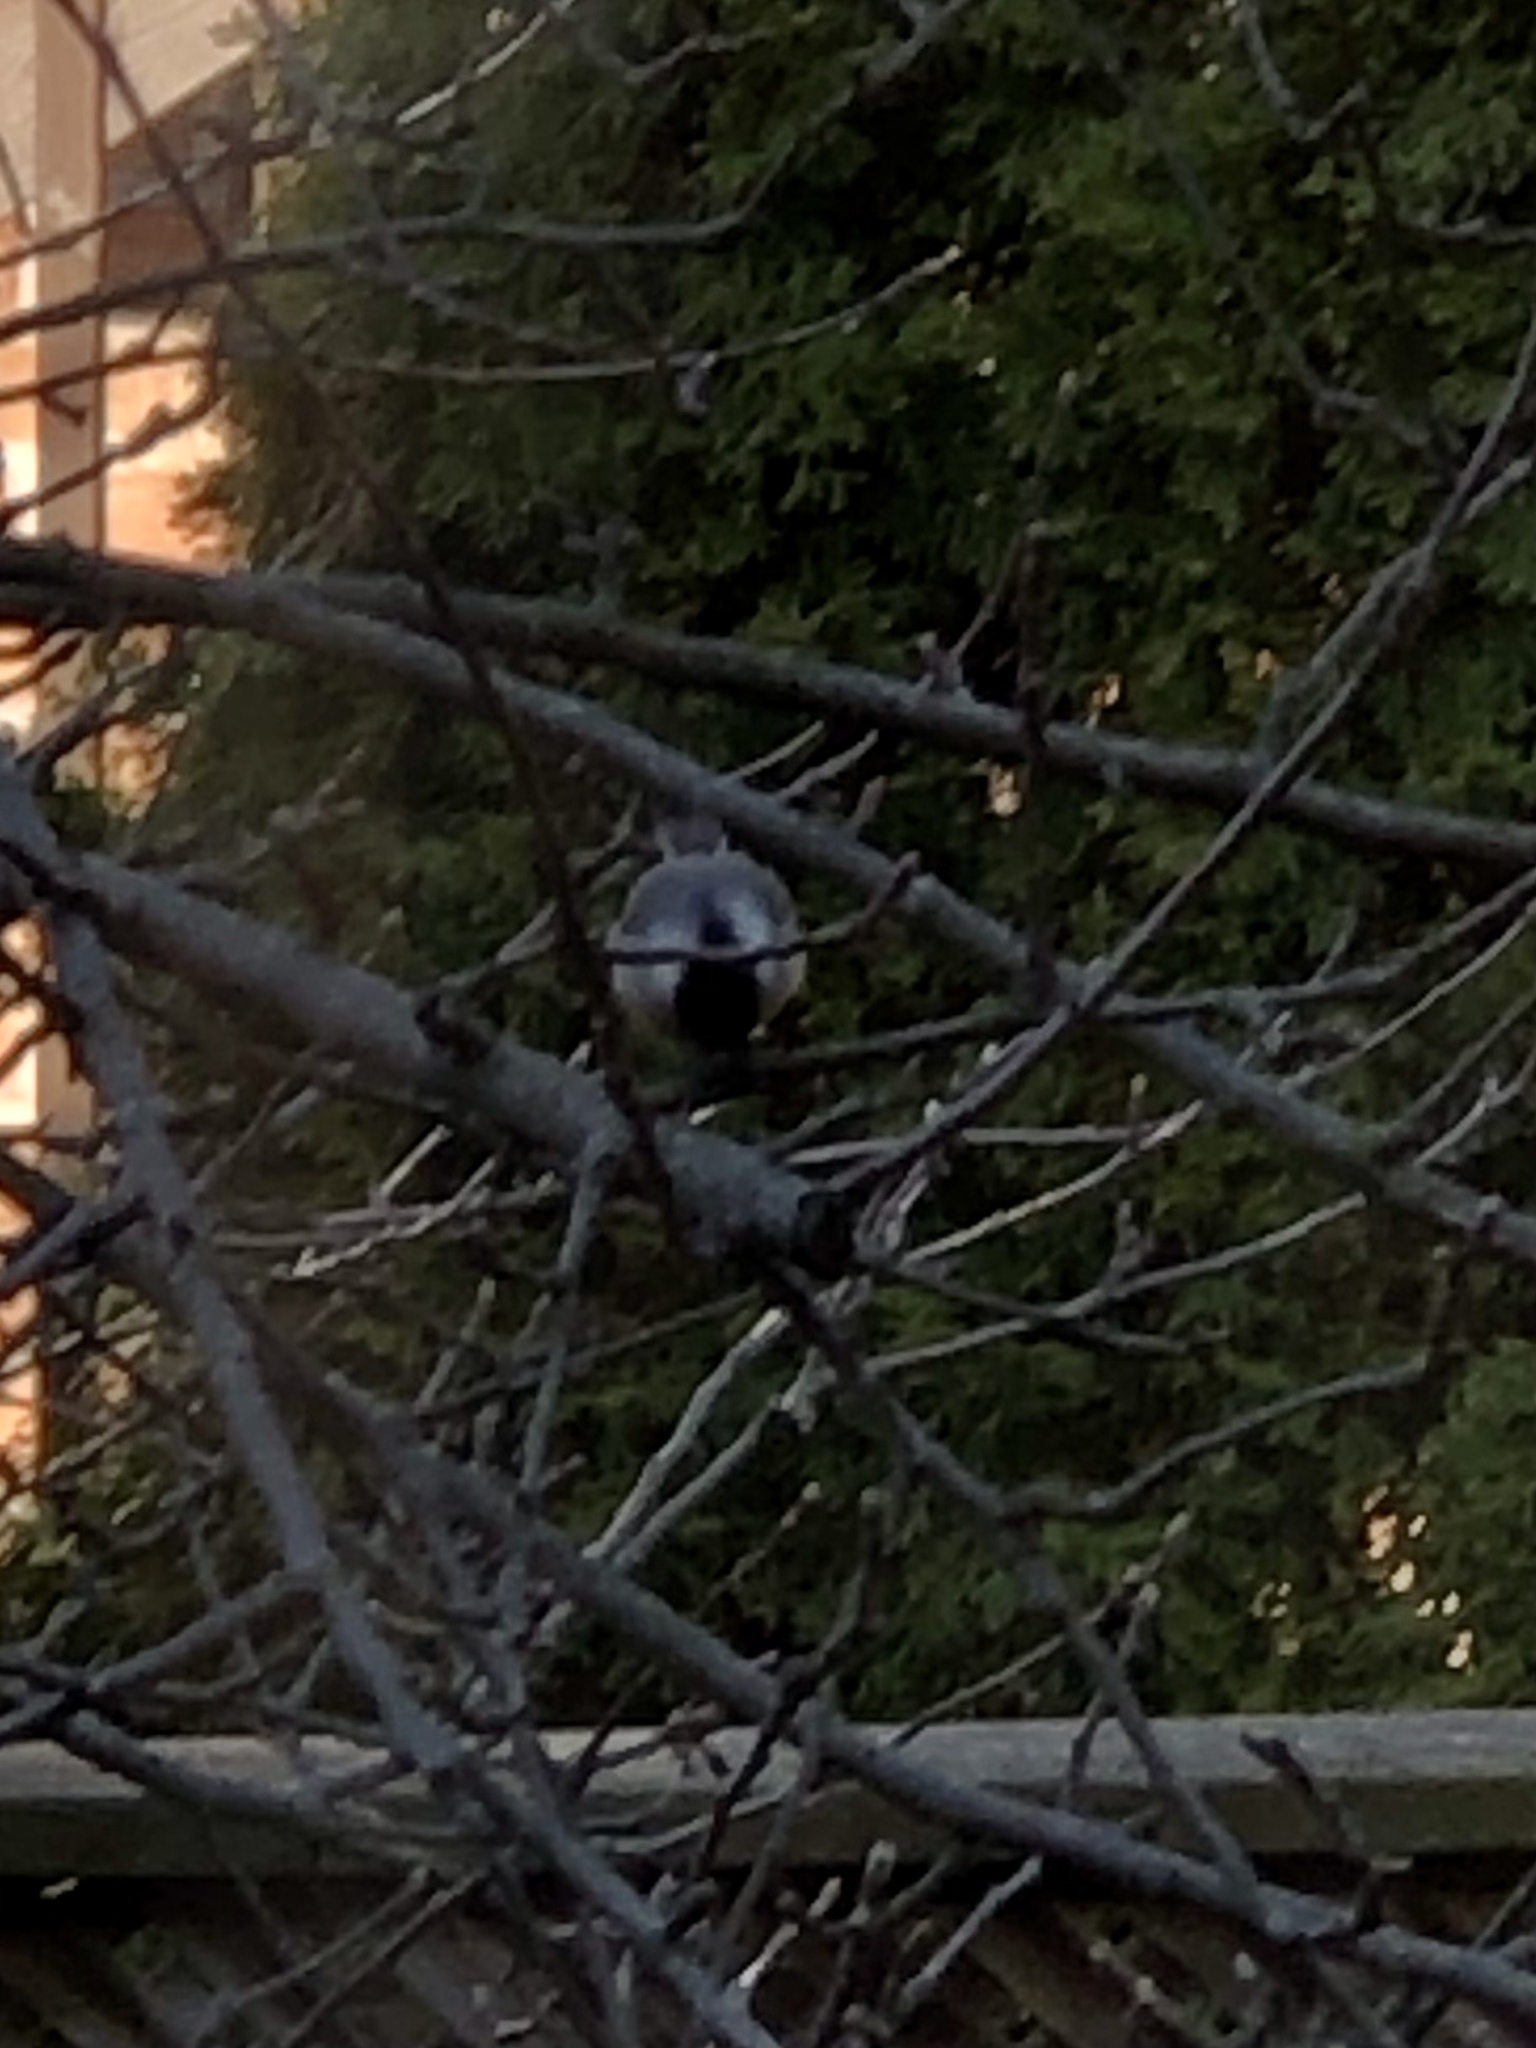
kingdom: Animalia
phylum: Chordata
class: Aves
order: Passeriformes
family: Paridae
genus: Poecile
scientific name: Poecile atricapillus
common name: Black-capped chickadee
